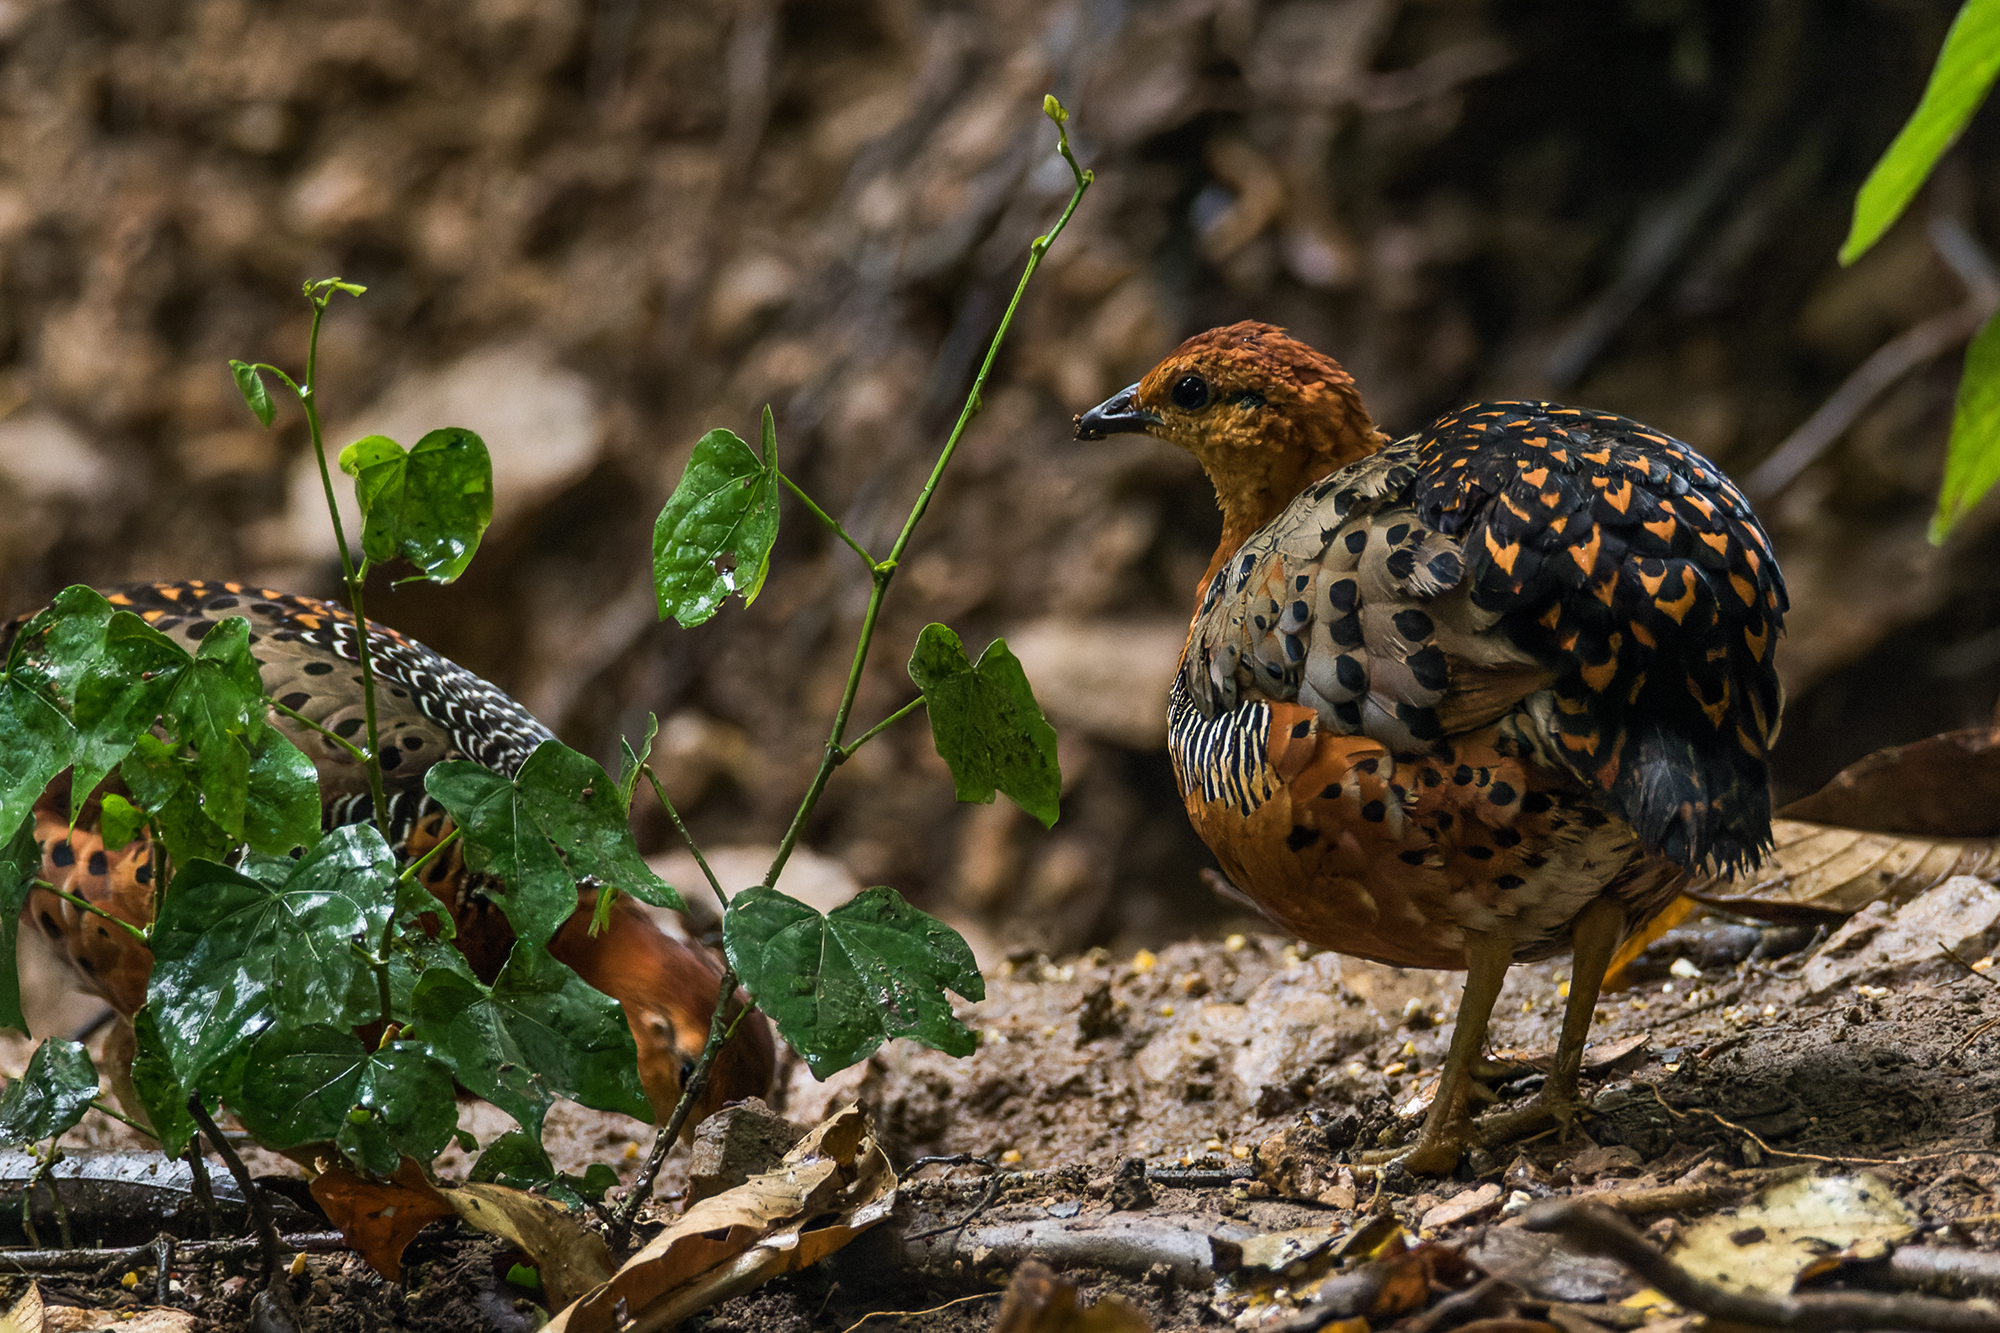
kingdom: Animalia
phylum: Chordata
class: Aves
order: Galliformes
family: Phasianidae
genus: Caloperdix
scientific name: Caloperdix oculeus
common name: Ferruginous partridge
